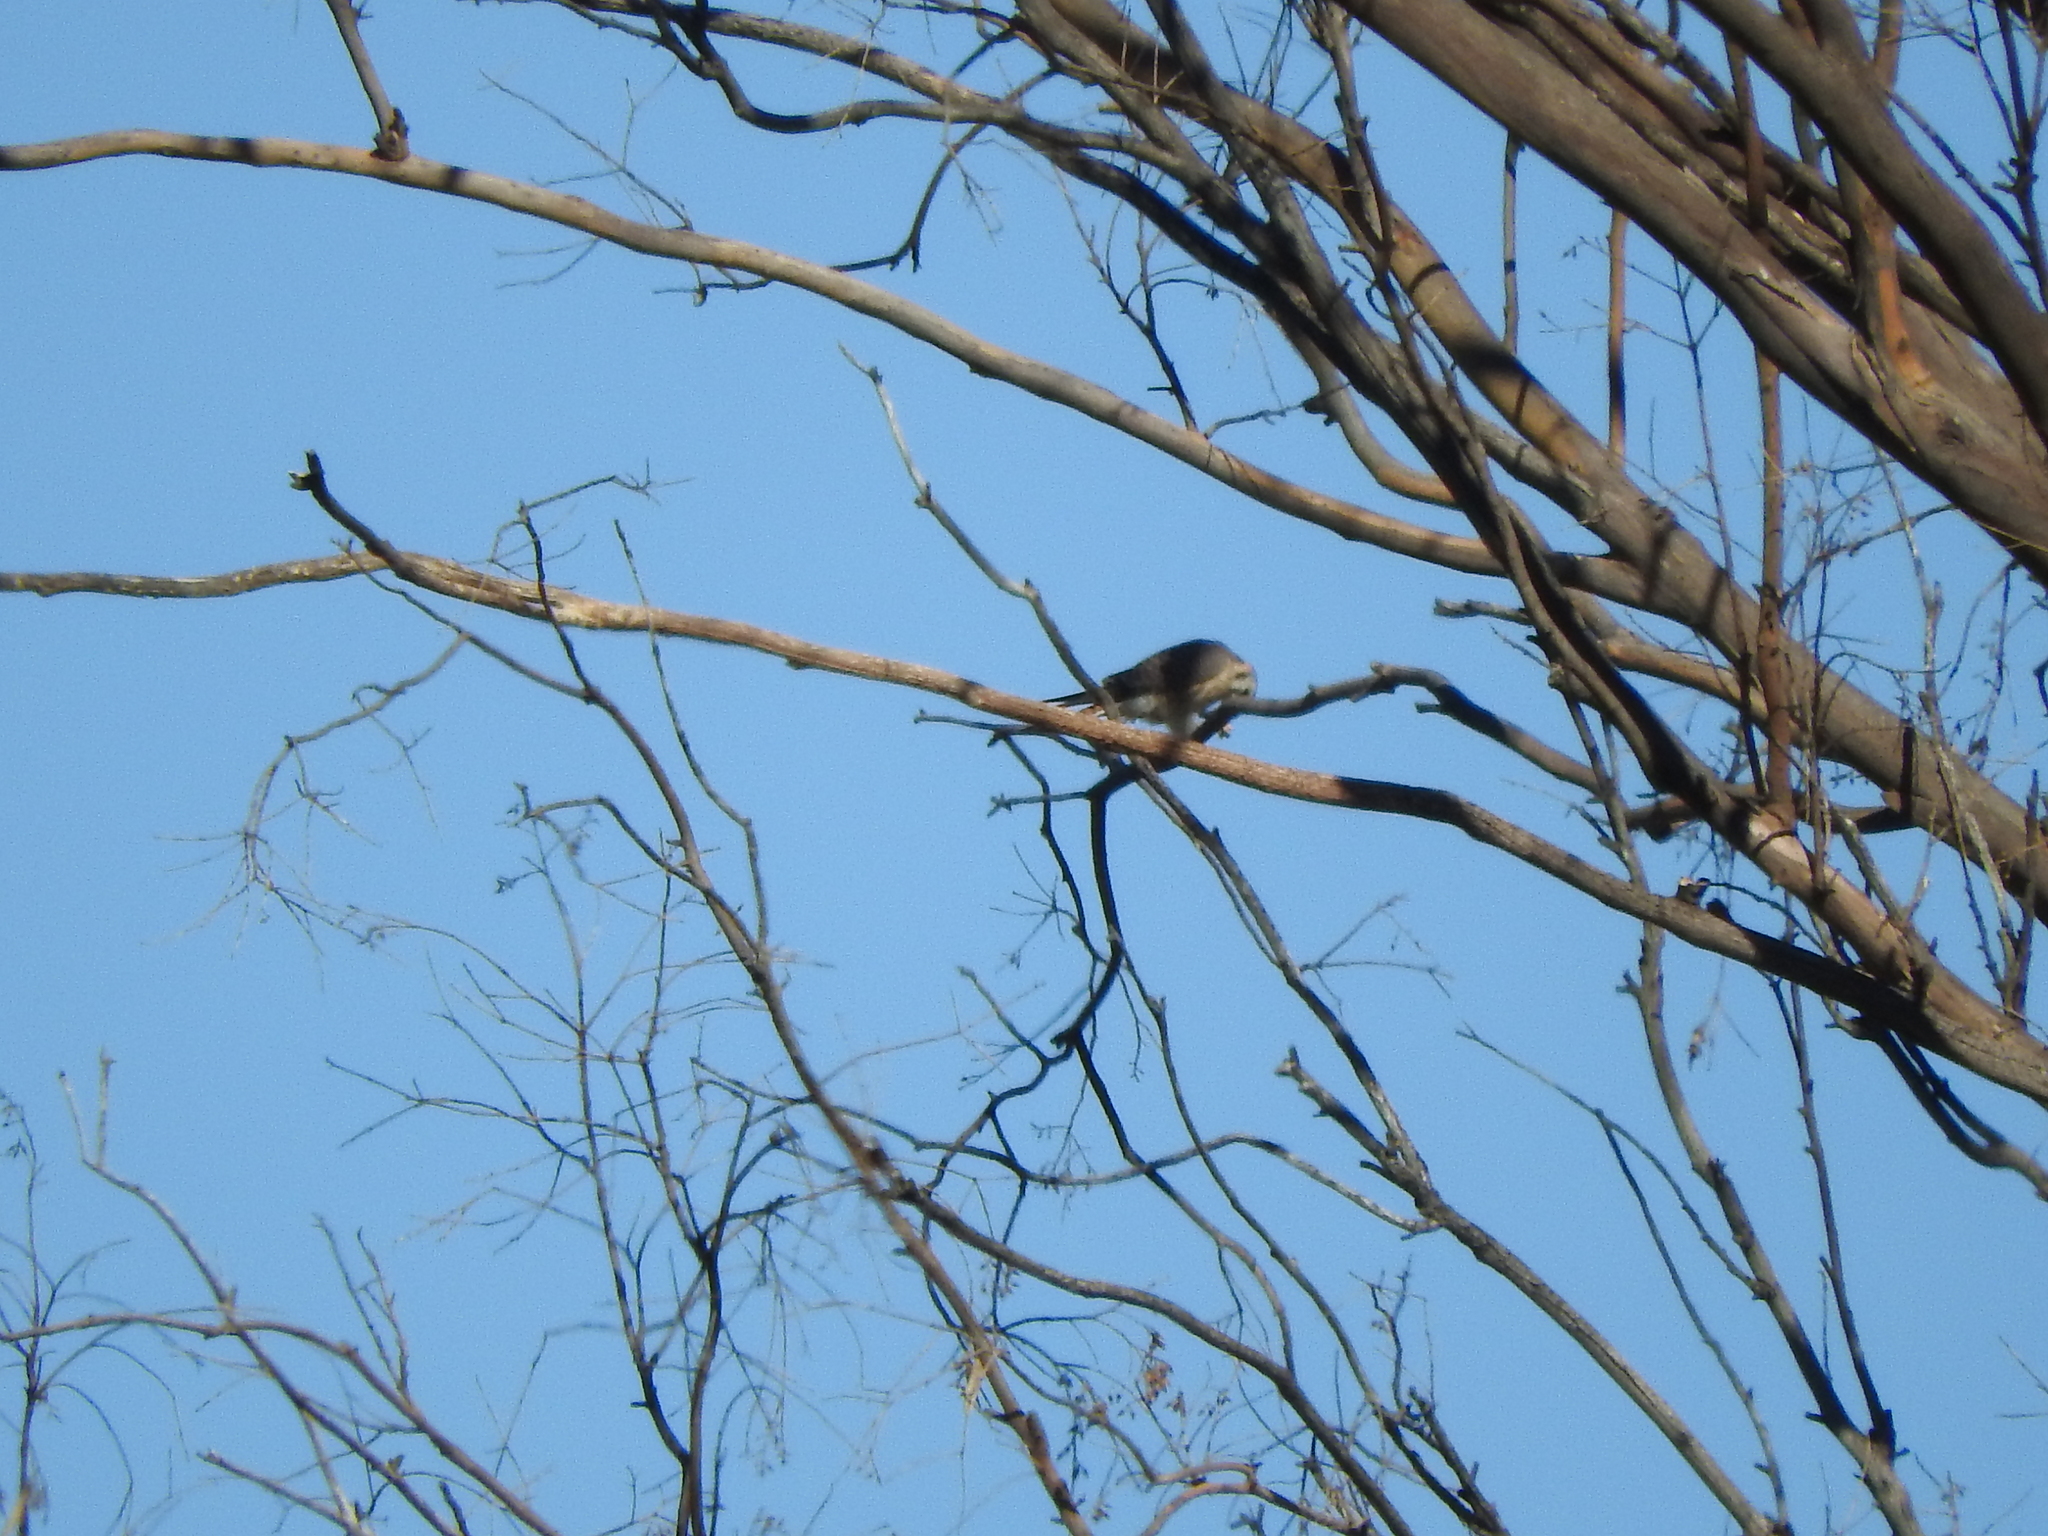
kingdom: Animalia
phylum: Chordata
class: Aves
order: Falconiformes
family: Falconidae
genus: Falco
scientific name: Falco sparverius
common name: American kestrel
